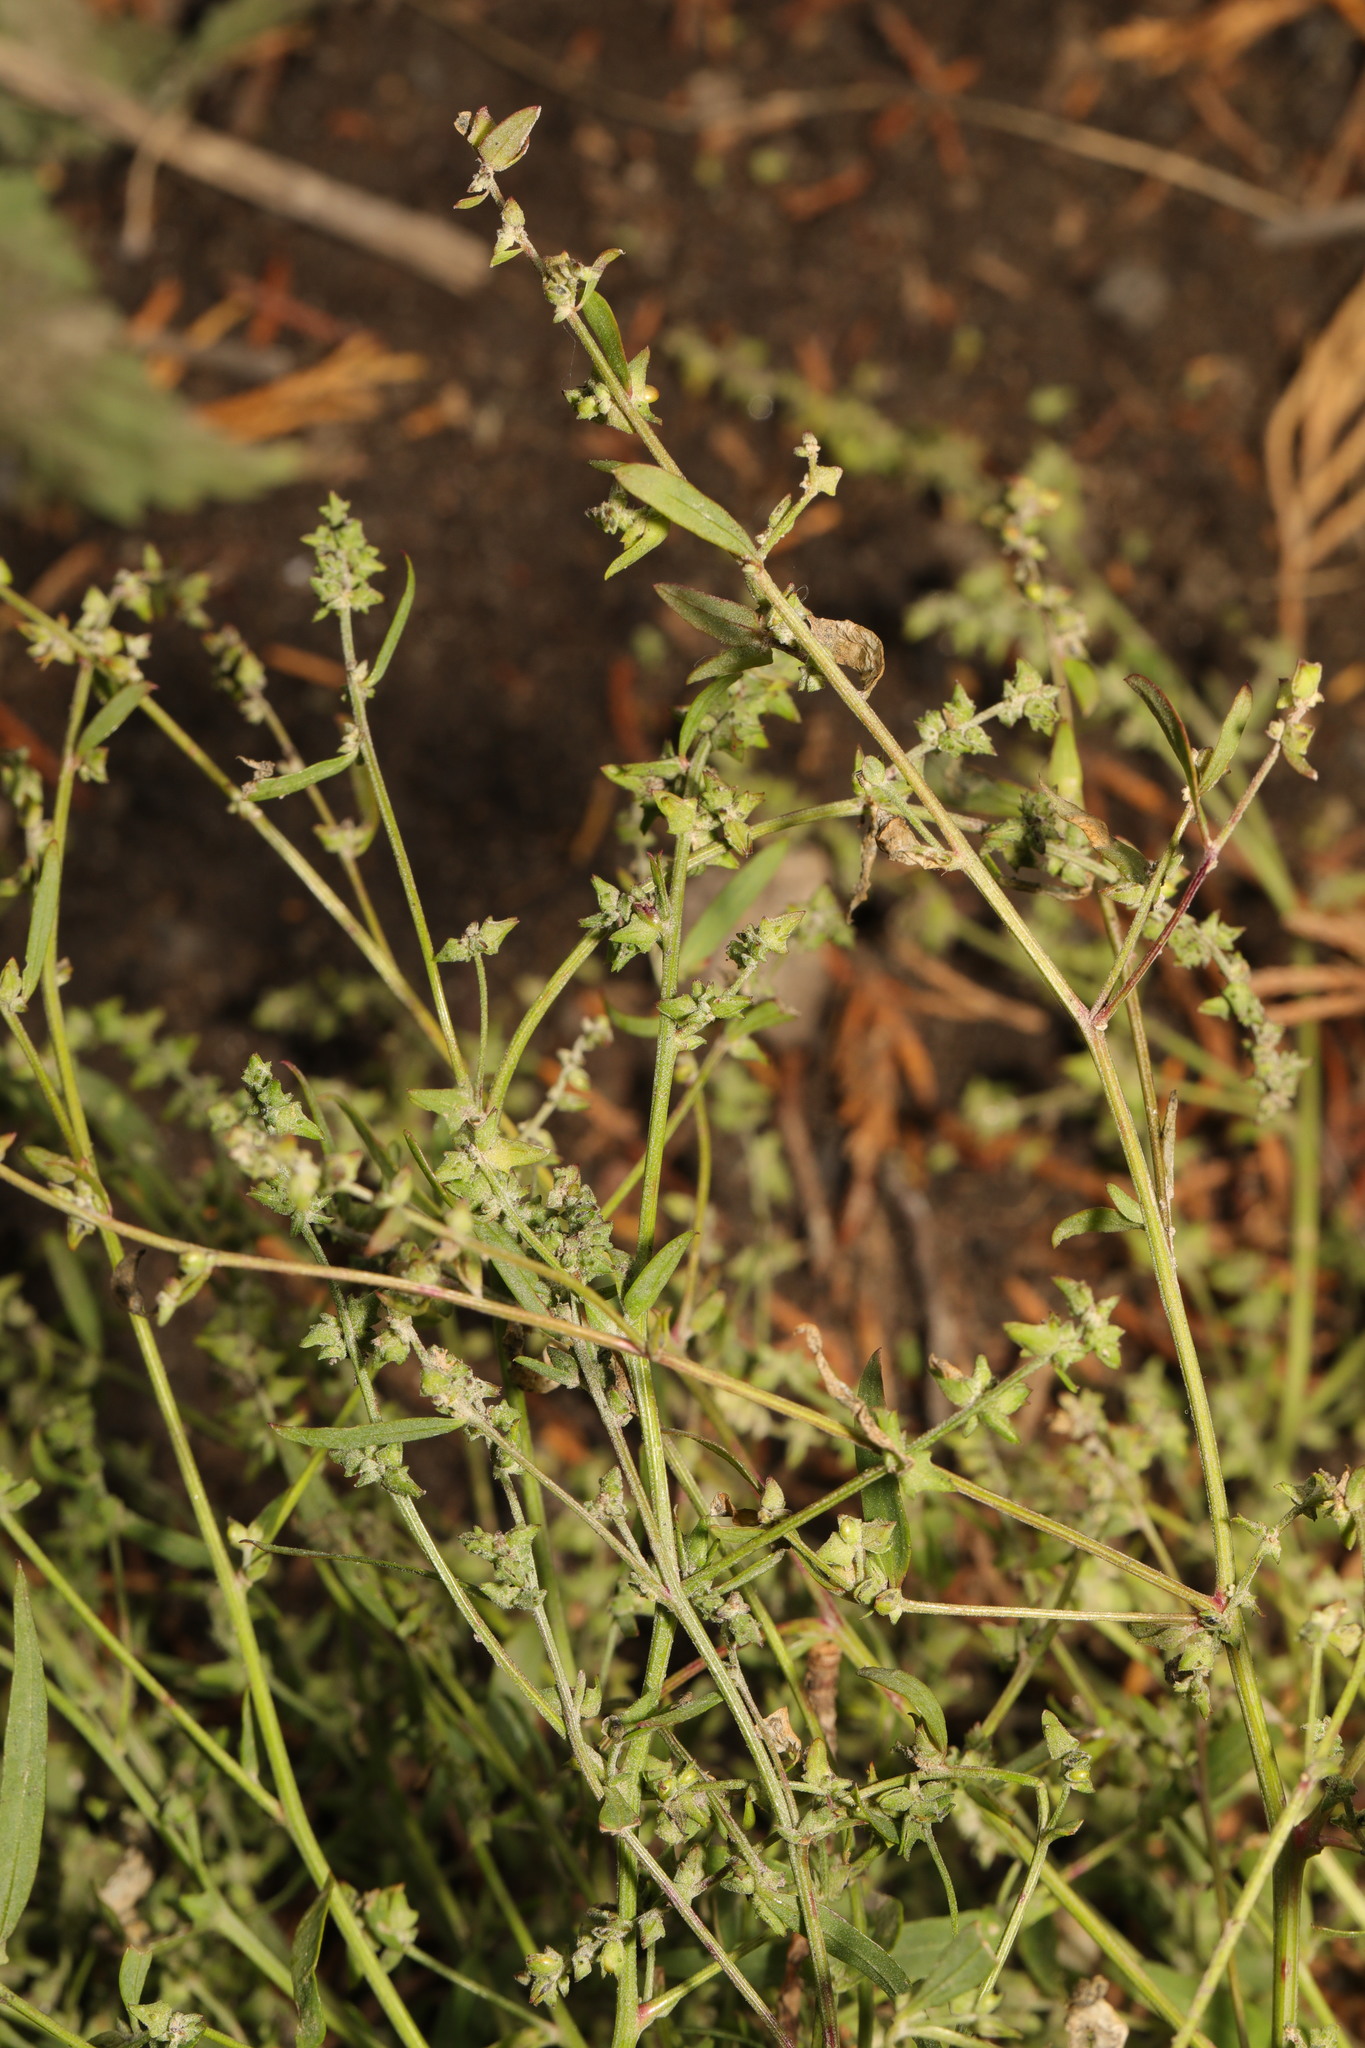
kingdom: Plantae
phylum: Tracheophyta
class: Magnoliopsida
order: Caryophyllales
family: Amaranthaceae
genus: Atriplex
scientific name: Atriplex patula
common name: Common orache
